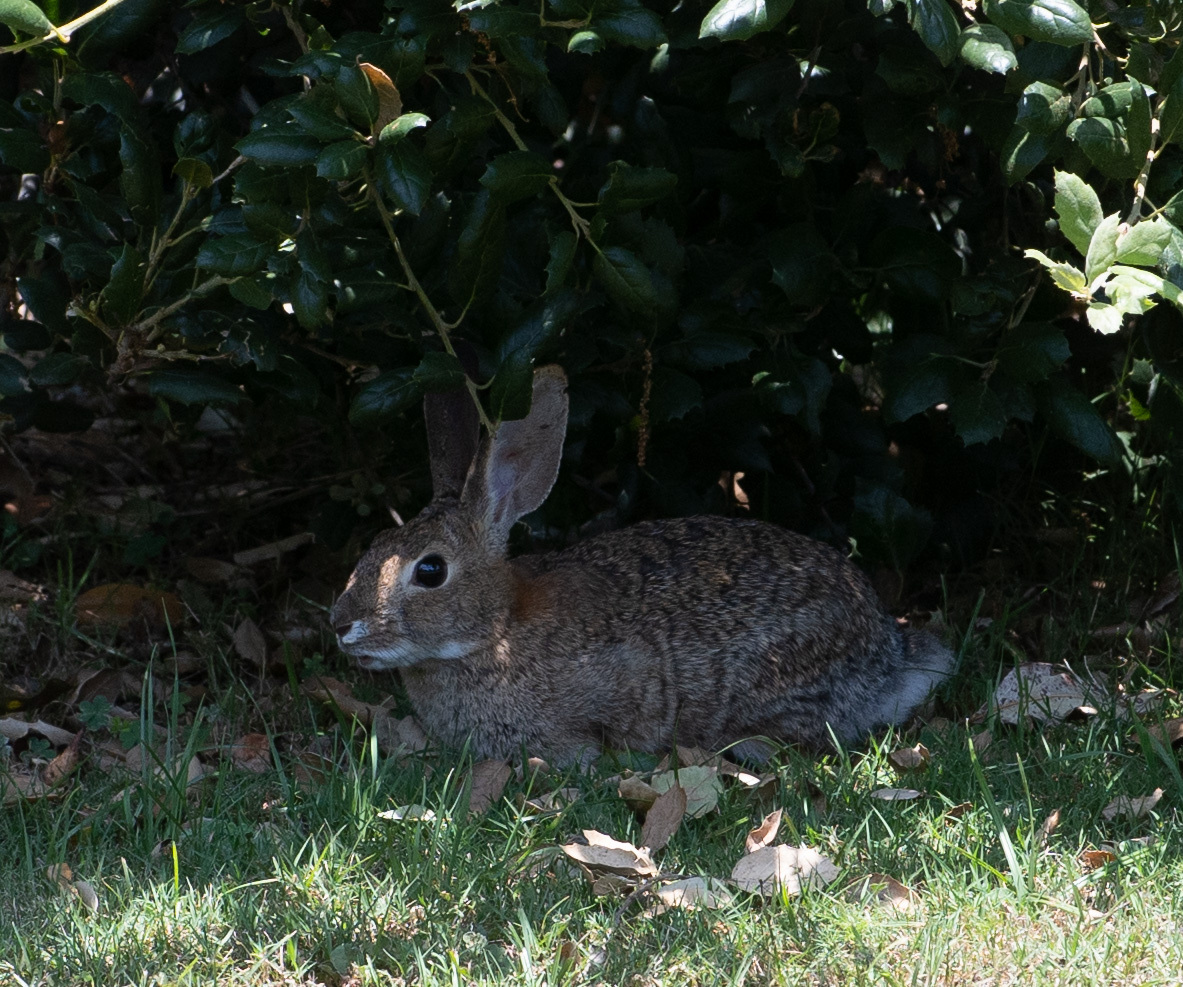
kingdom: Animalia
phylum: Chordata
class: Mammalia
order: Lagomorpha
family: Leporidae
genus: Sylvilagus
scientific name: Sylvilagus audubonii
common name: Desert cottontail
